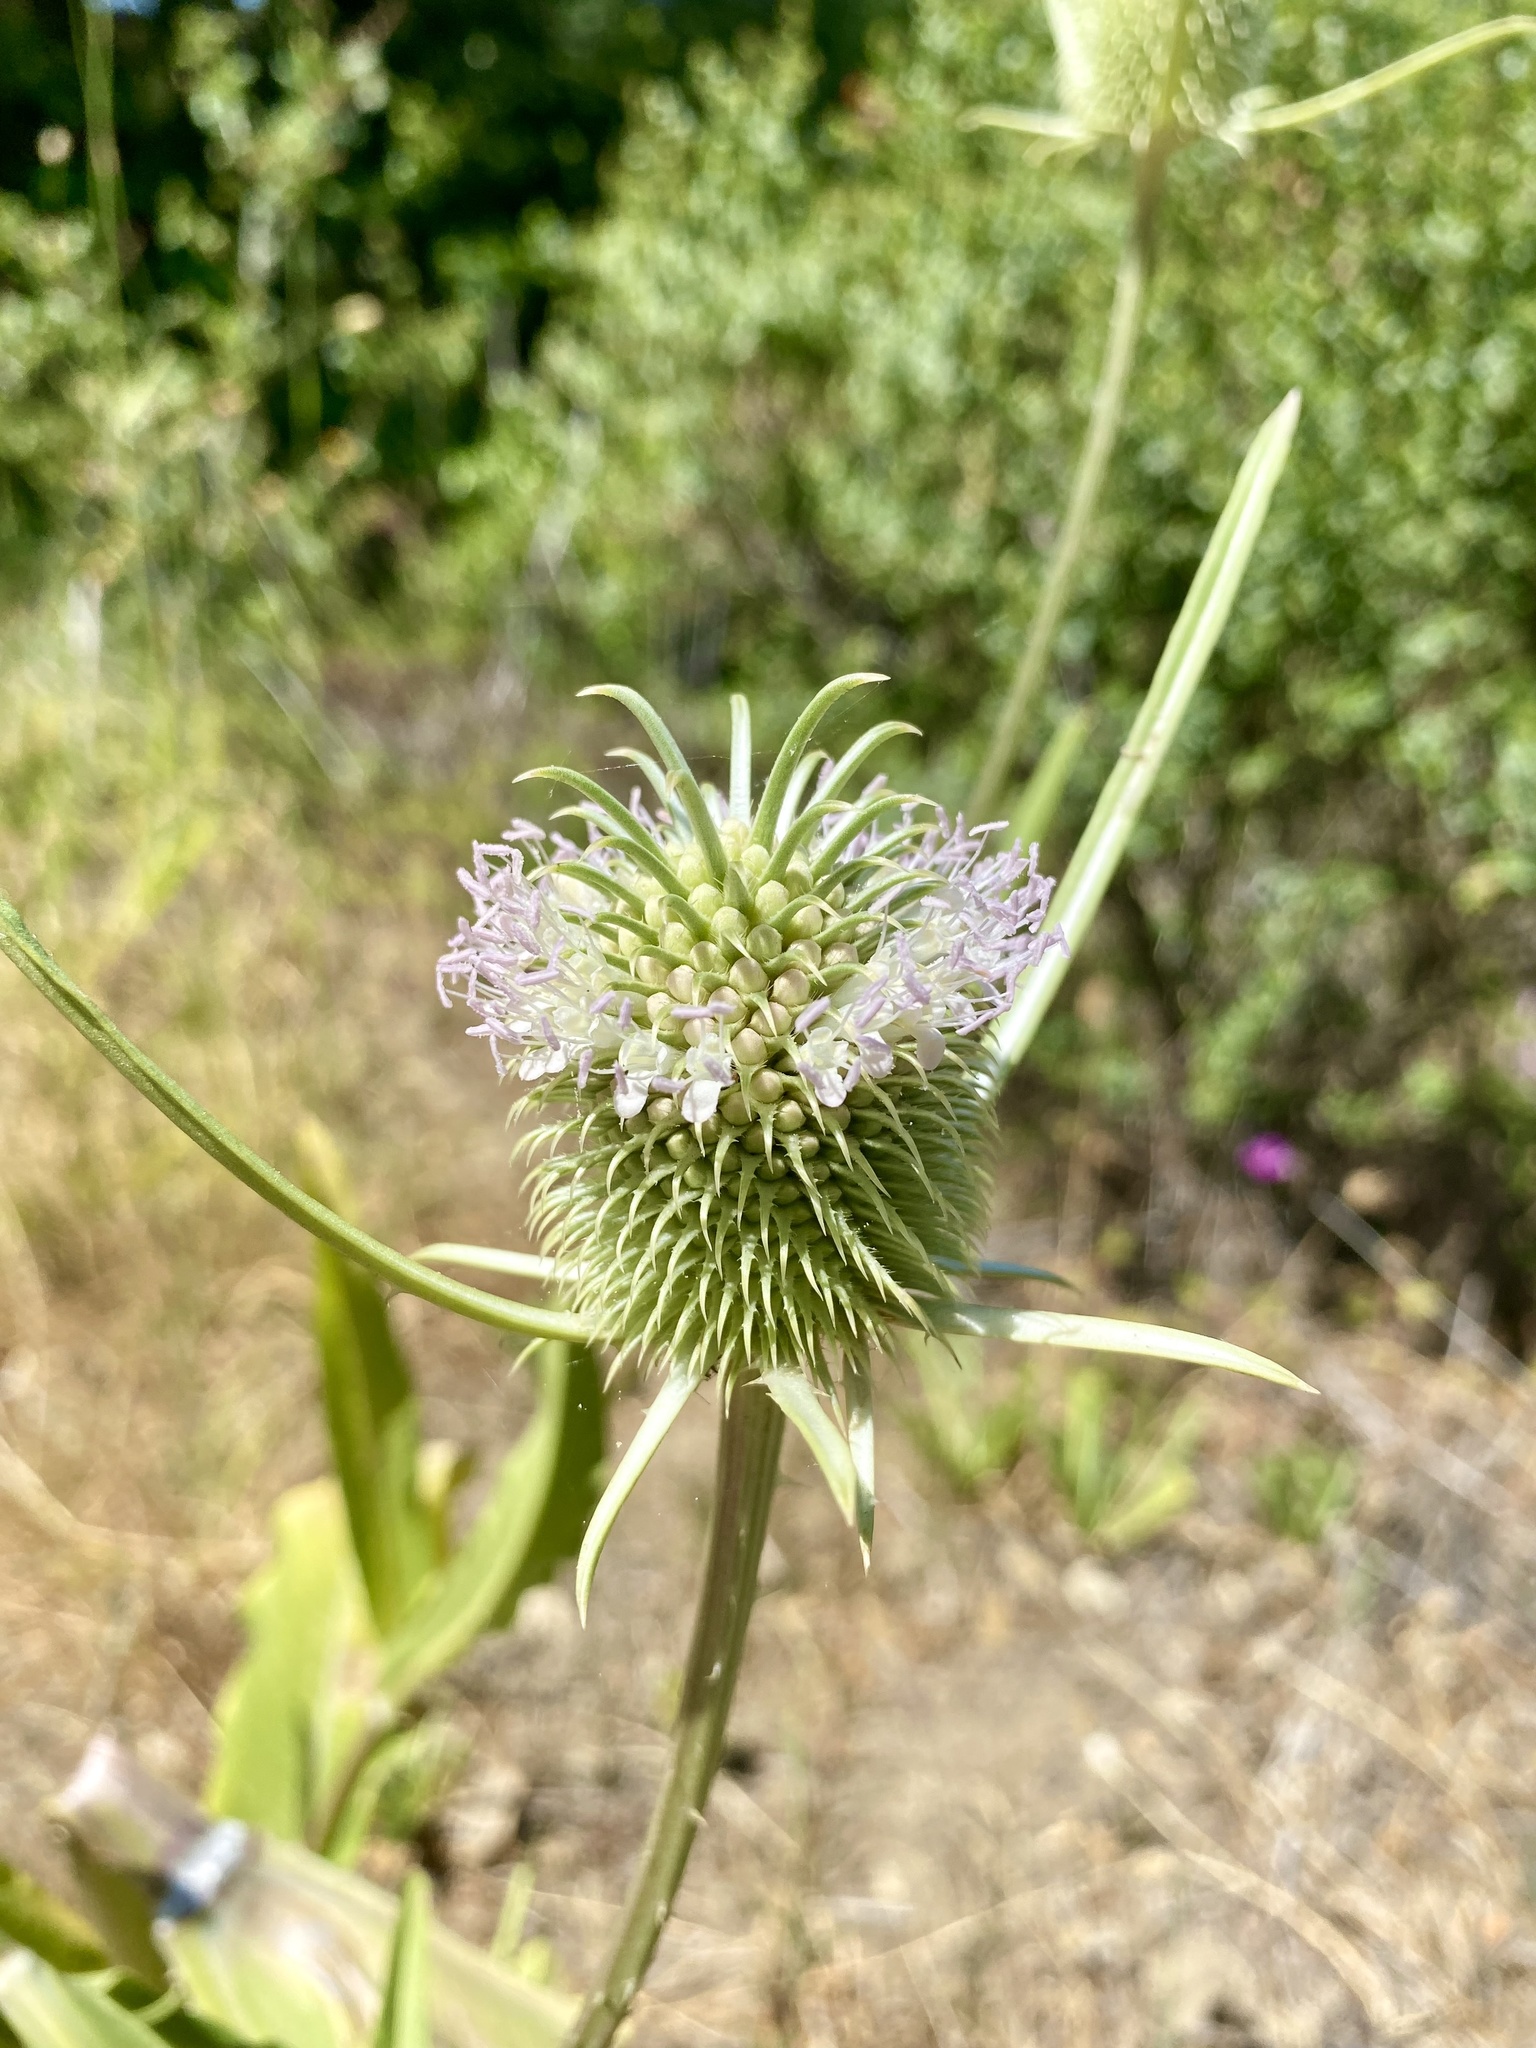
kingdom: Plantae
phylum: Tracheophyta
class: Magnoliopsida
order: Dipsacales
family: Caprifoliaceae
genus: Dipsacus
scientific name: Dipsacus sativus
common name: Fuller's teasel
